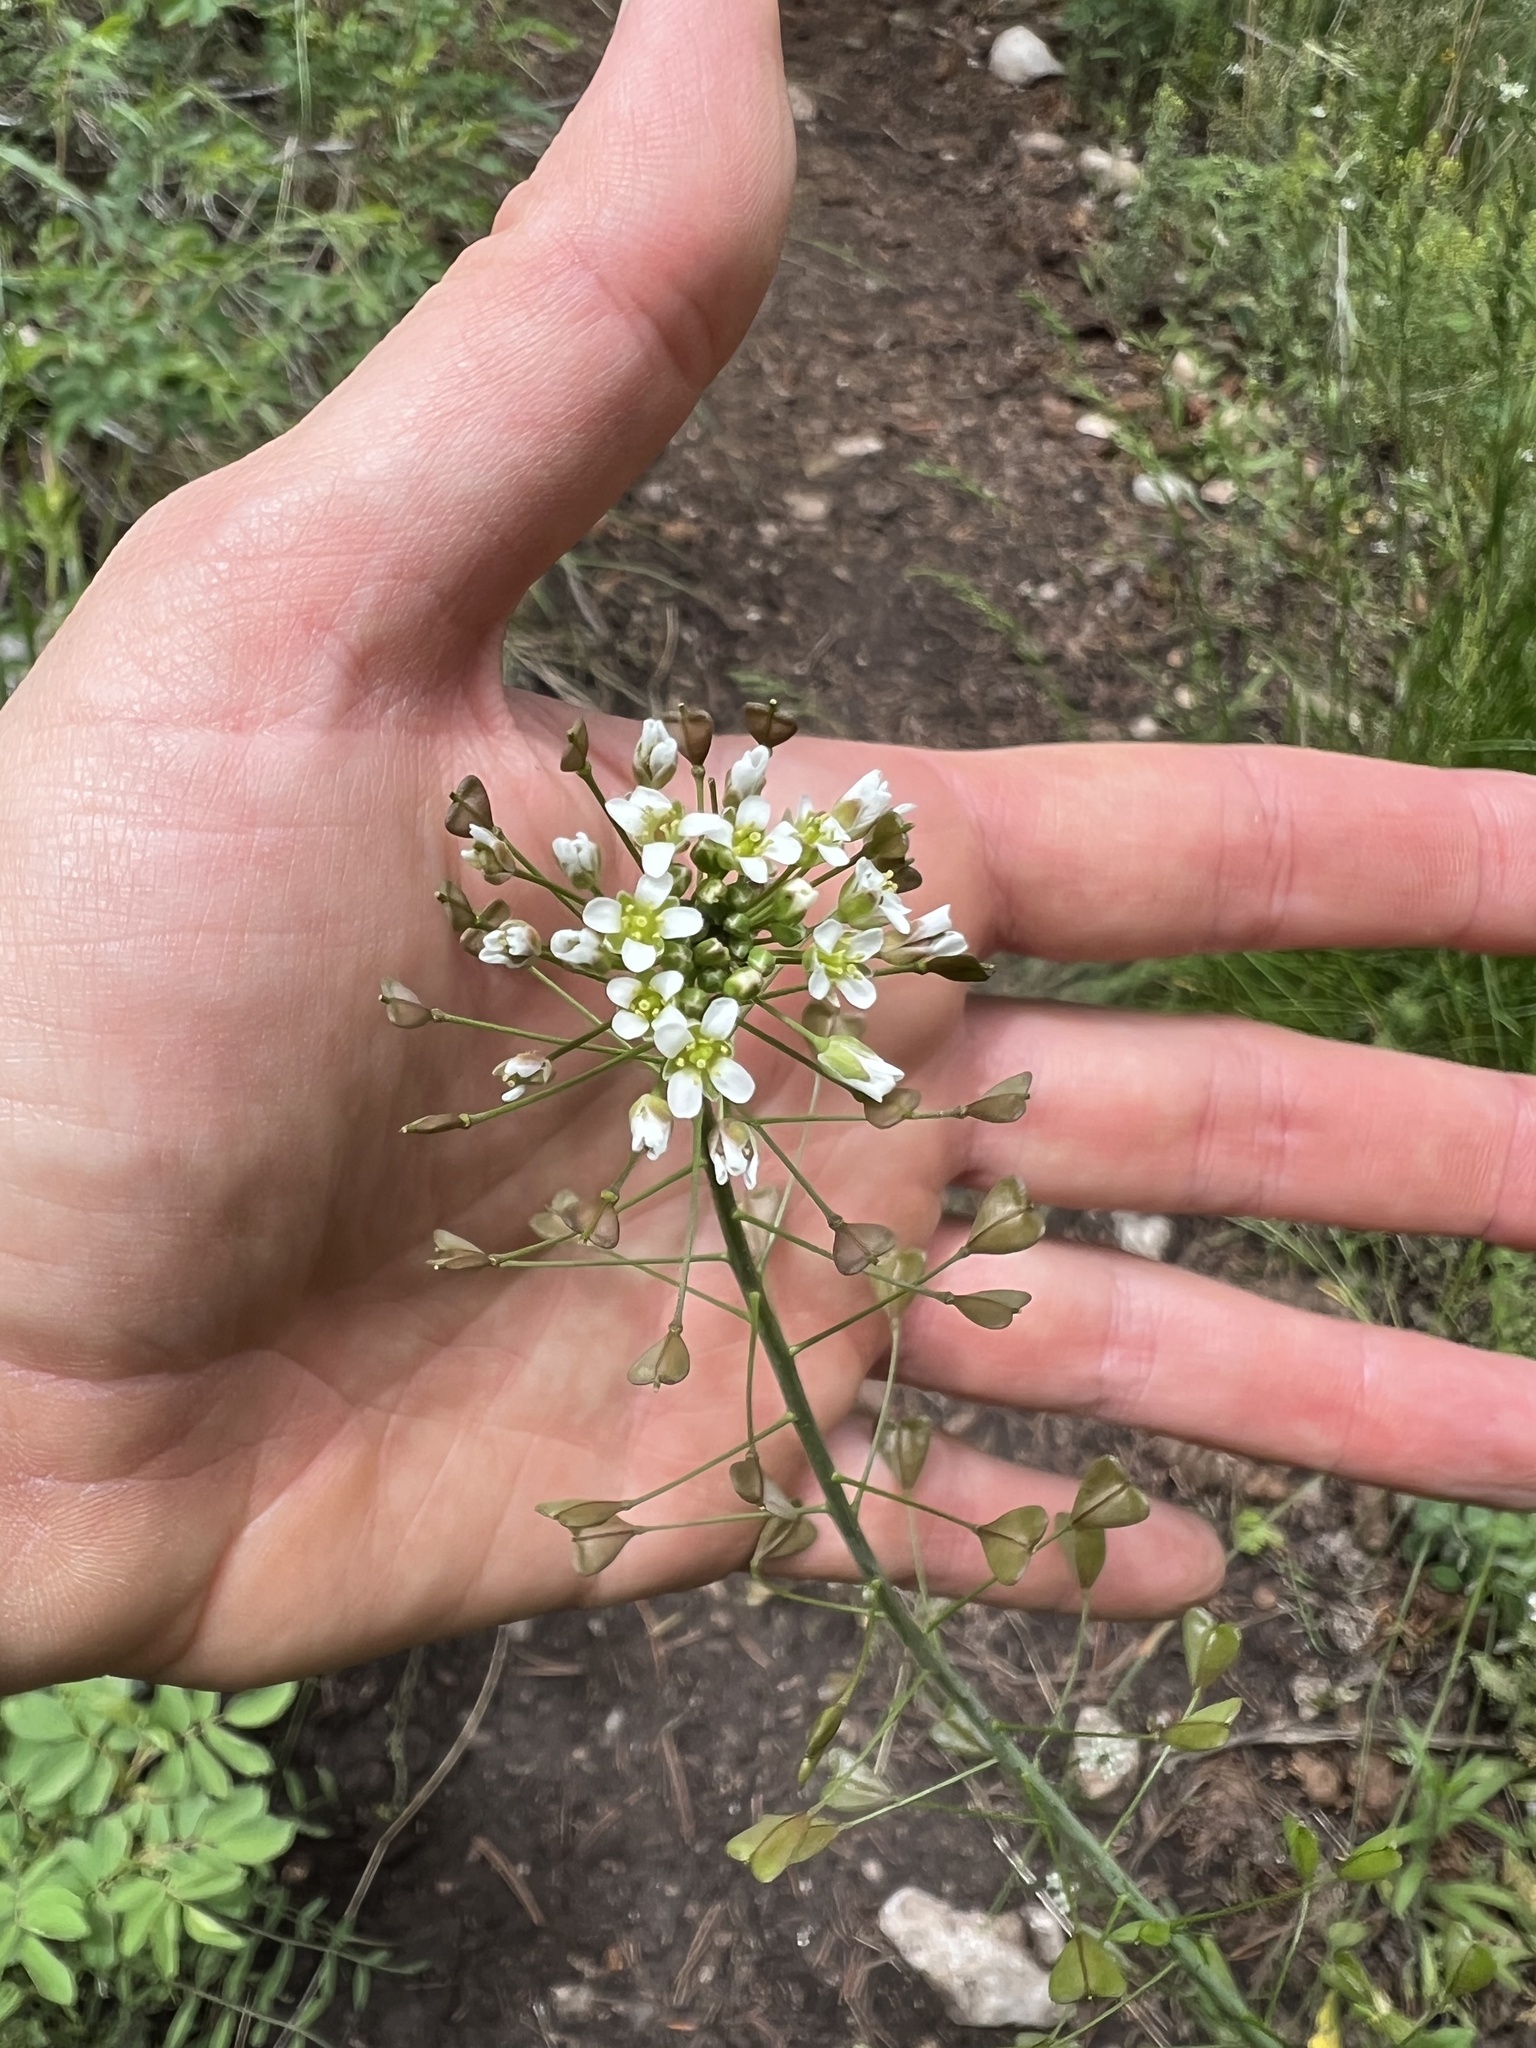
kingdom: Plantae
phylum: Tracheophyta
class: Magnoliopsida
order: Brassicales
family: Brassicaceae
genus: Capsella
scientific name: Capsella bursa-pastoris
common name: Shepherd's purse
